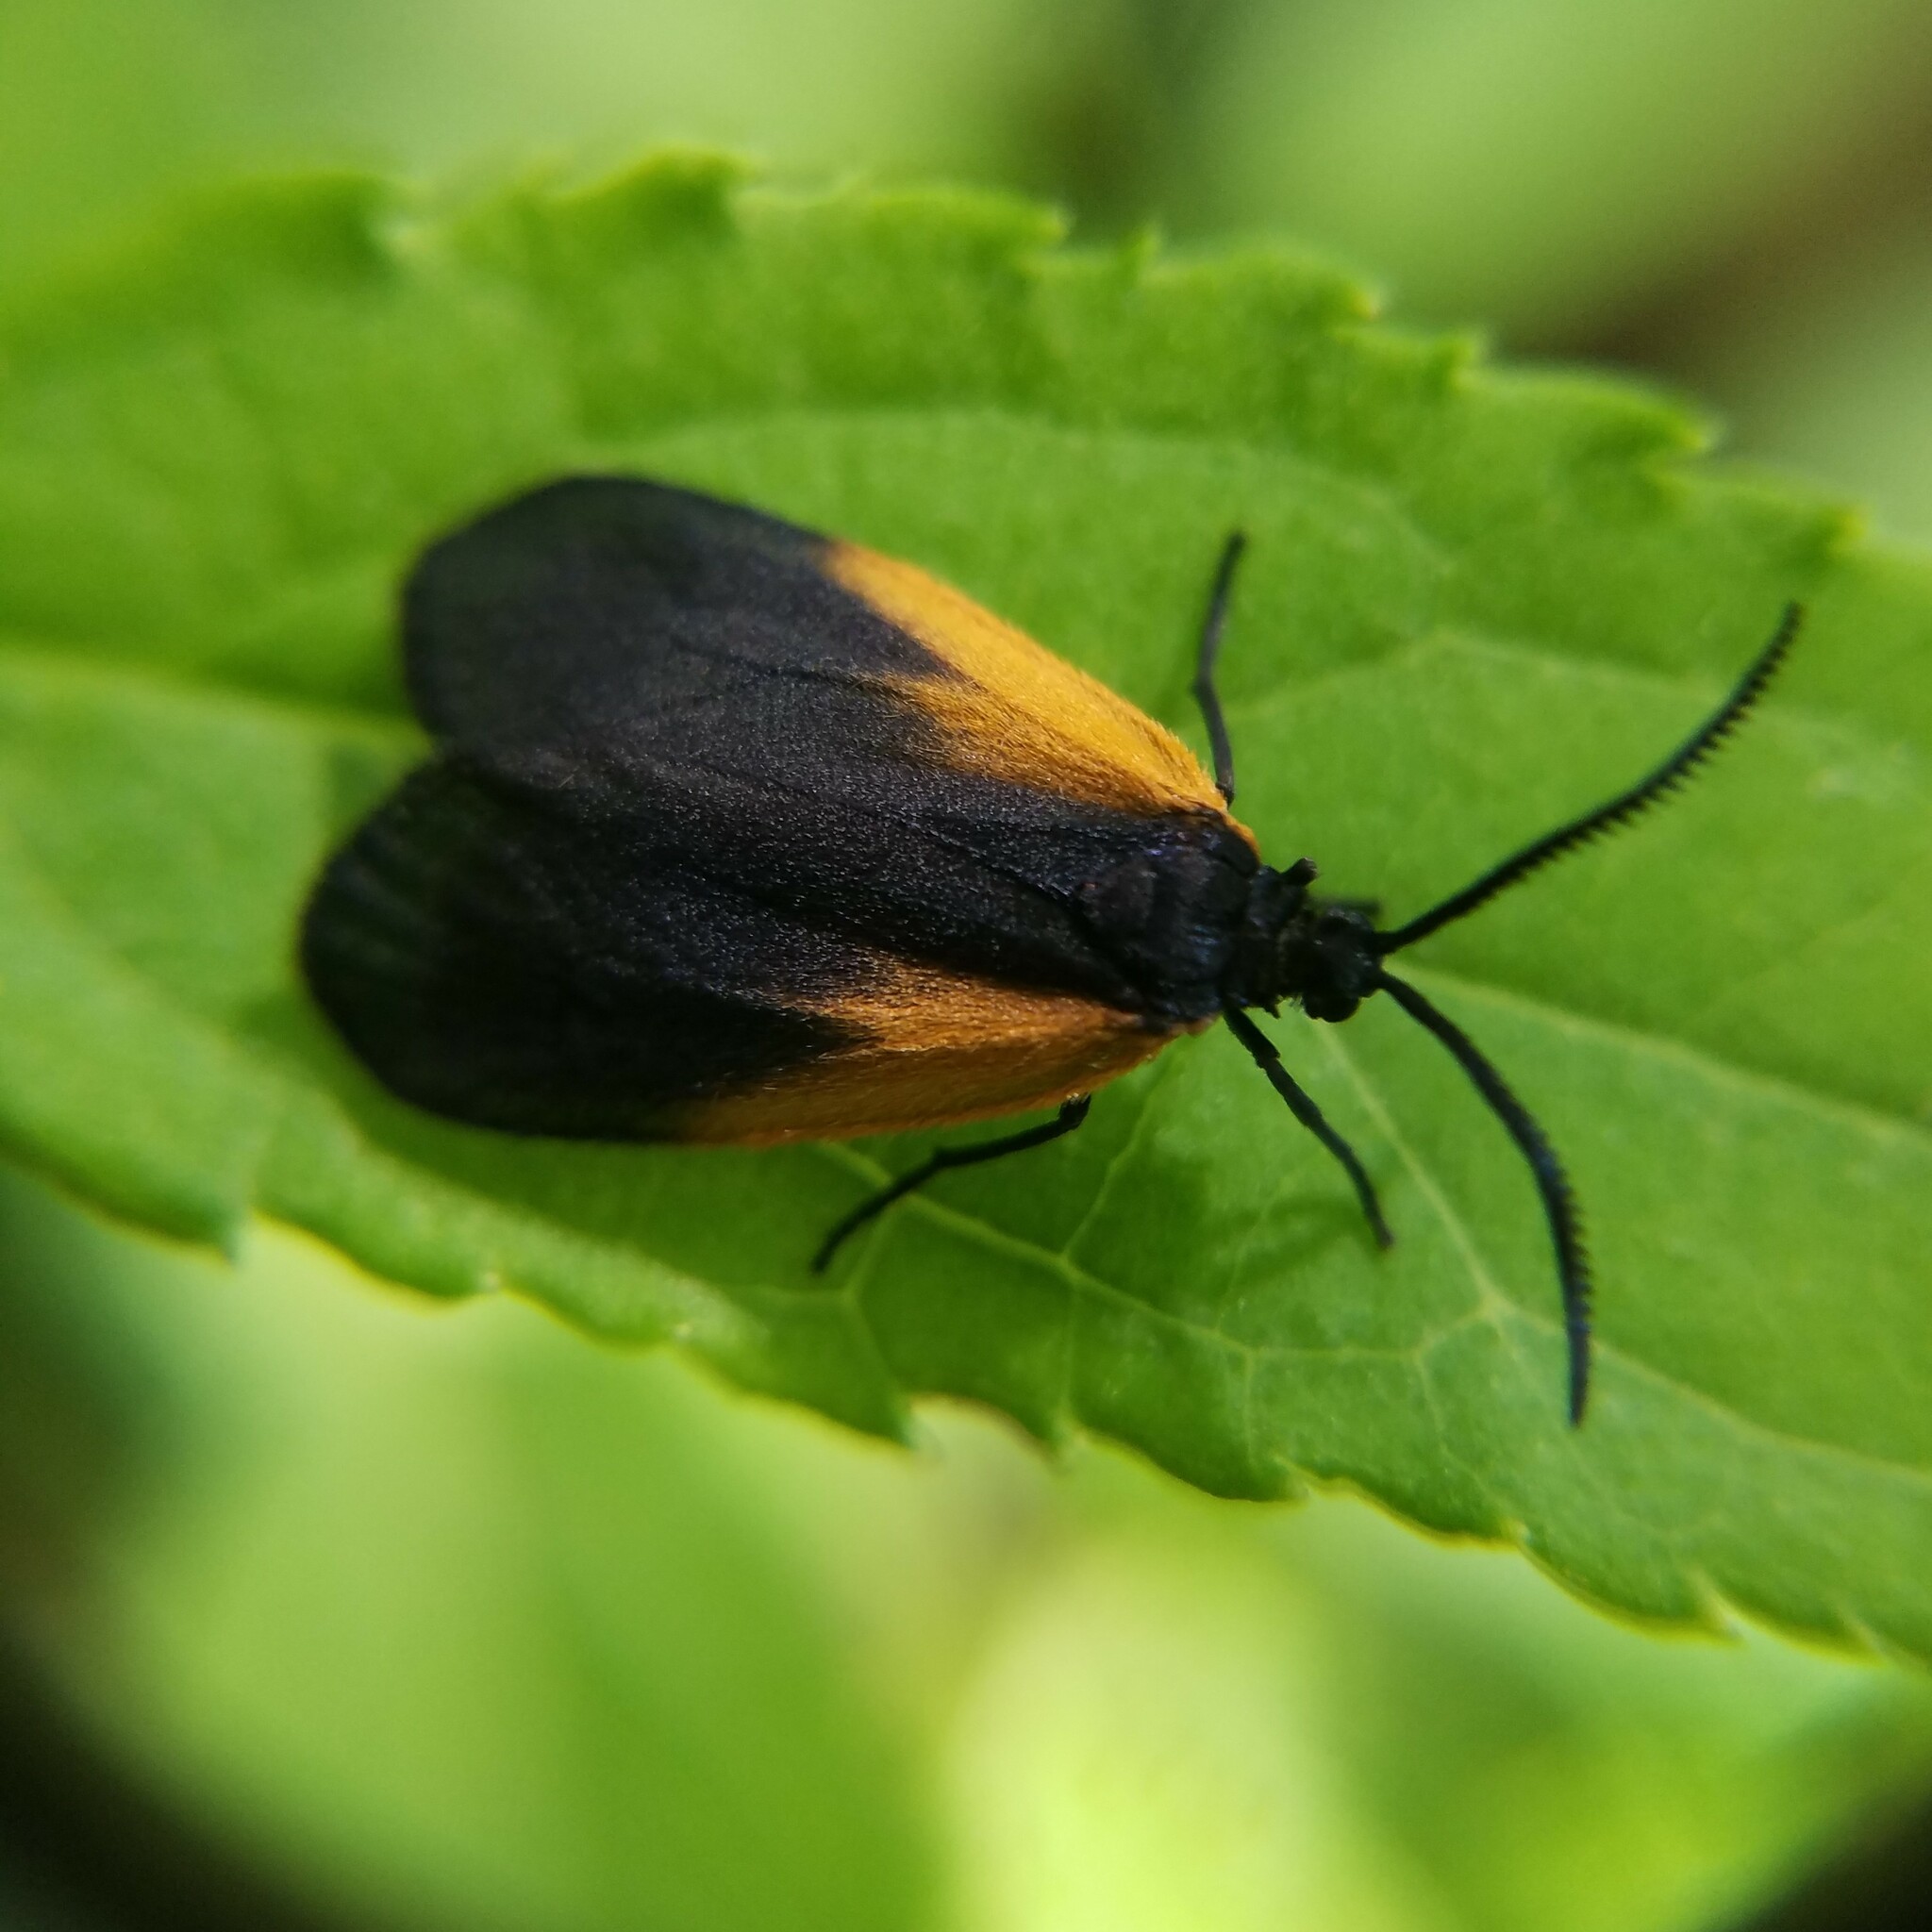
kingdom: Animalia
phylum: Arthropoda
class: Insecta
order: Lepidoptera
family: Zygaenidae
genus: Malthaca
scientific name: Malthaca dimidiata
